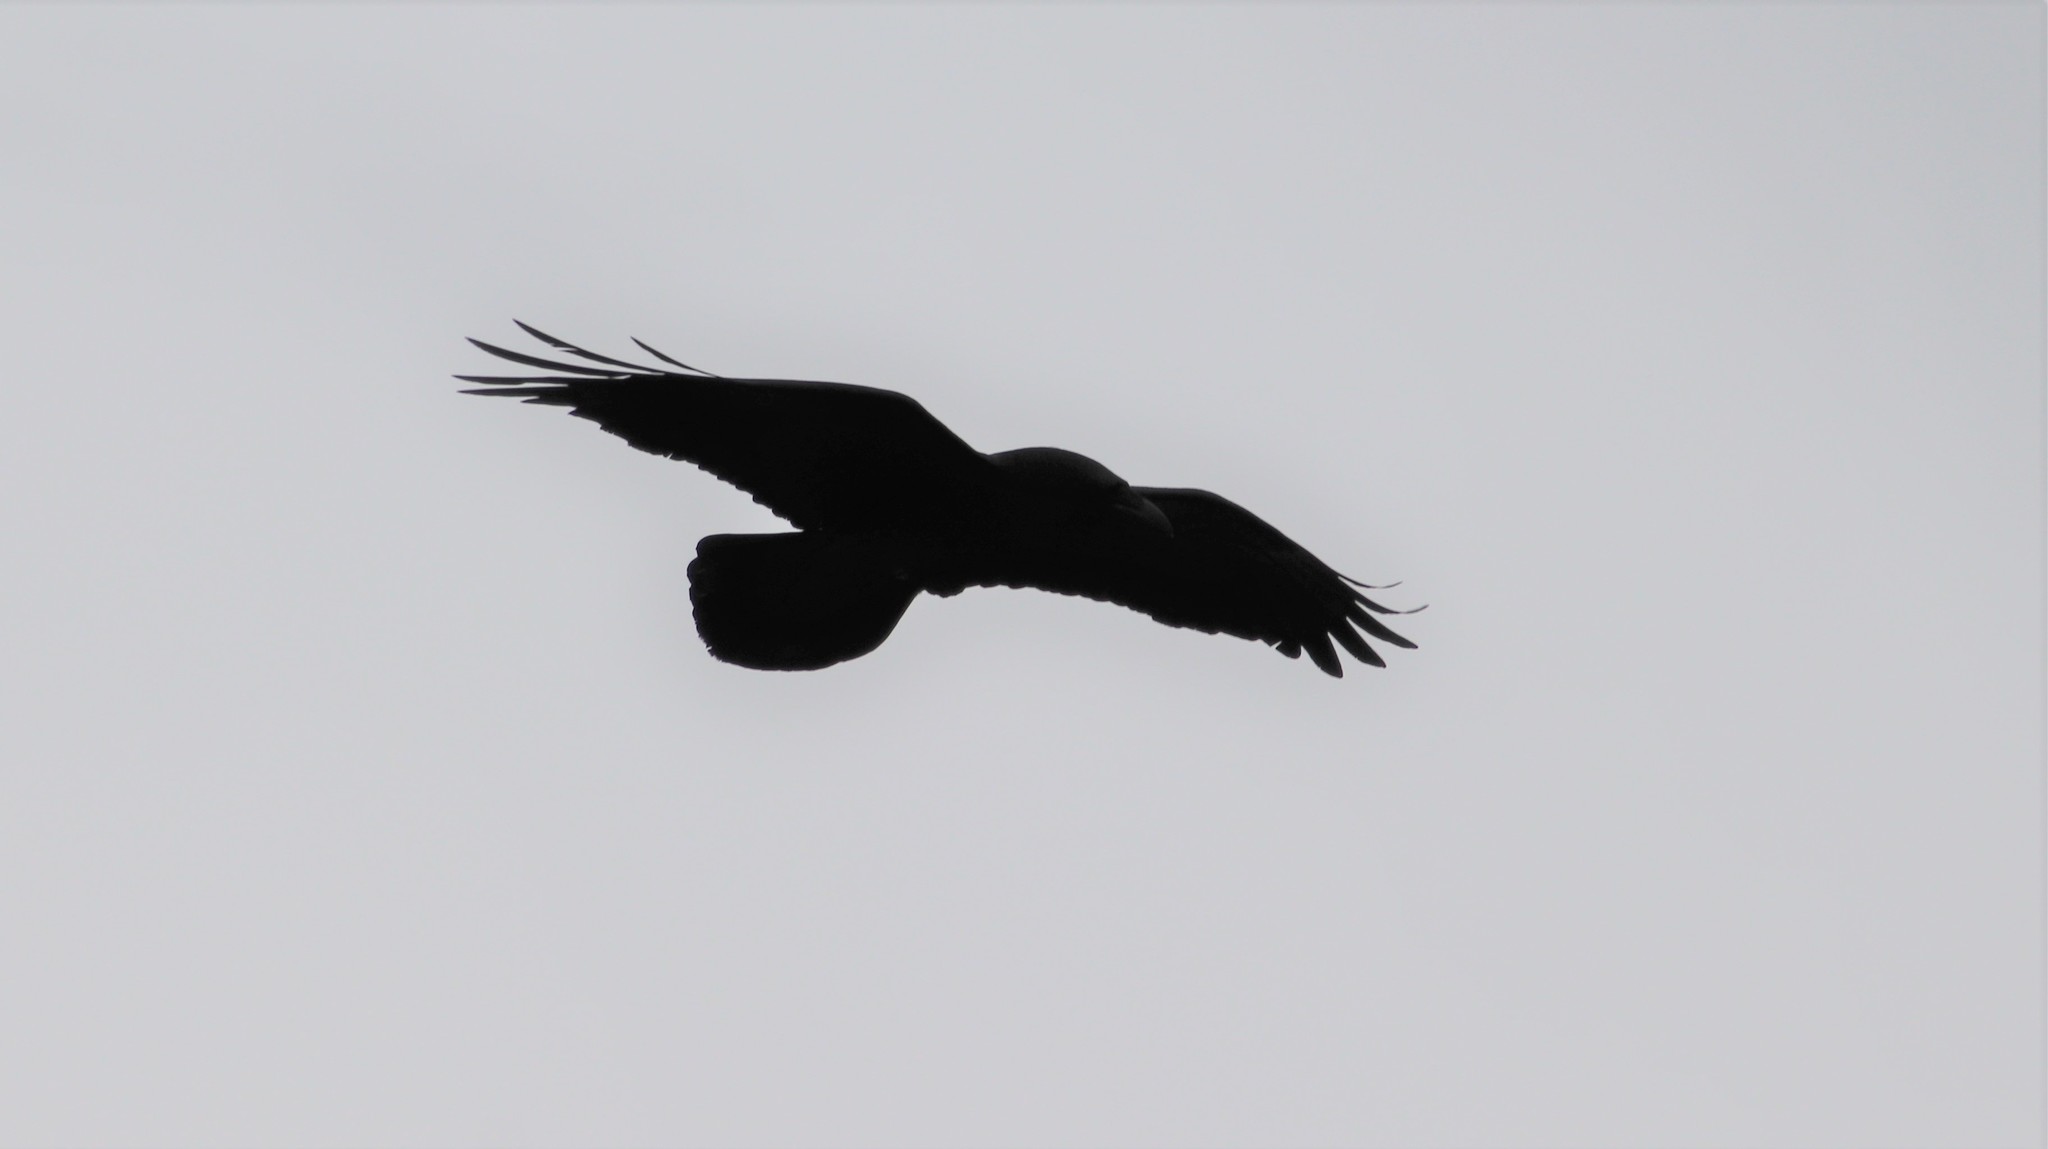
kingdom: Animalia
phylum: Chordata
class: Aves
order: Passeriformes
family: Corvidae
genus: Corvus
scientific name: Corvus corax
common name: Common raven
